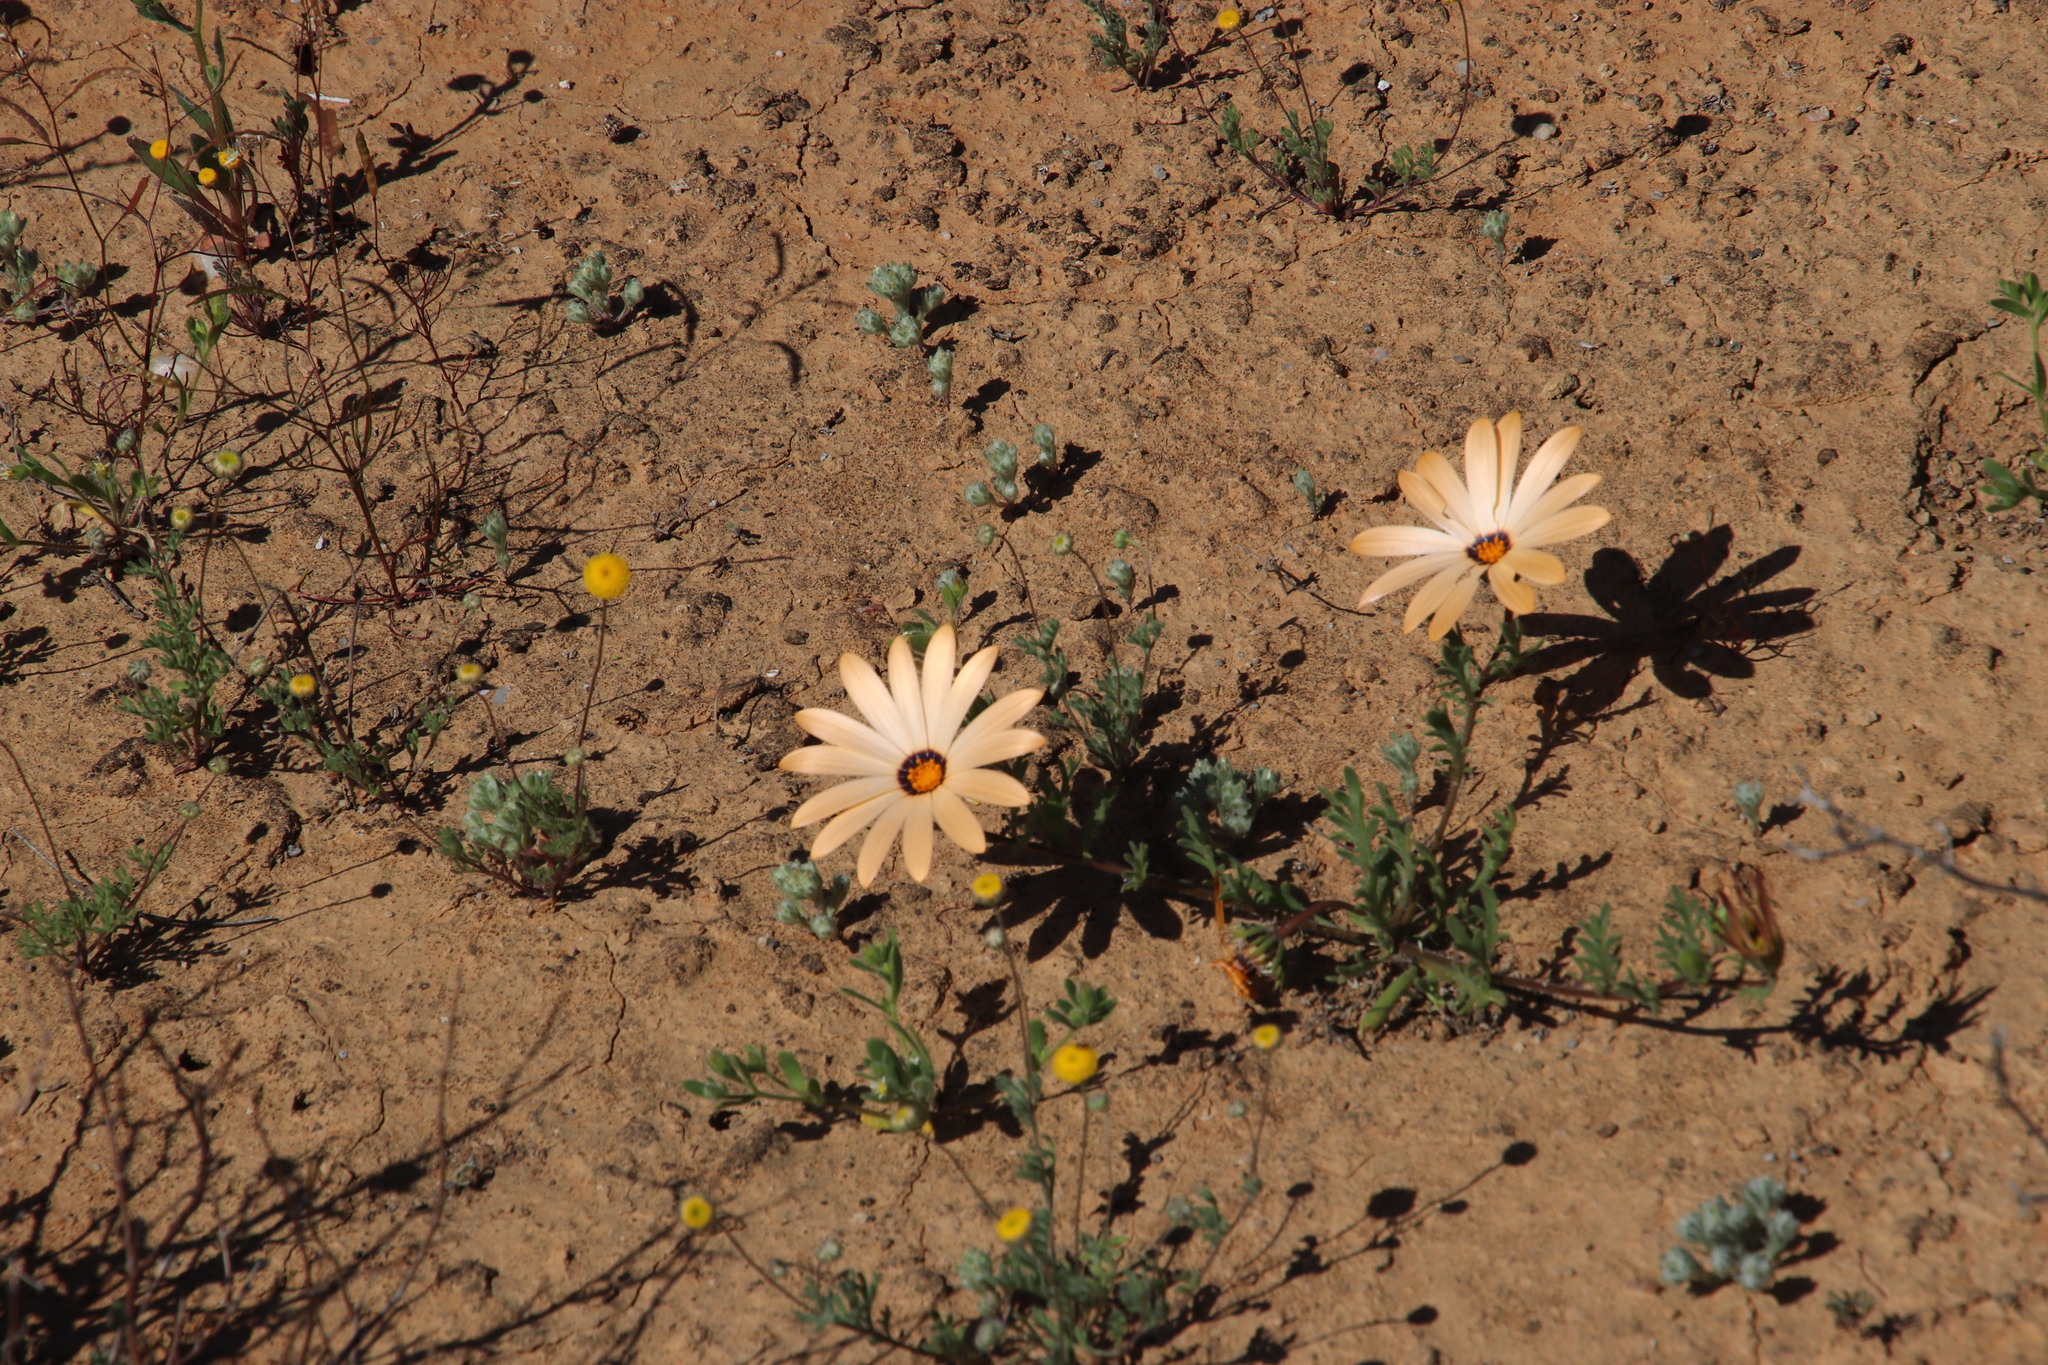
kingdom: Plantae
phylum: Tracheophyta
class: Magnoliopsida
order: Asterales
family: Asteraceae
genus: Dimorphotheca
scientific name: Dimorphotheca pinnata
